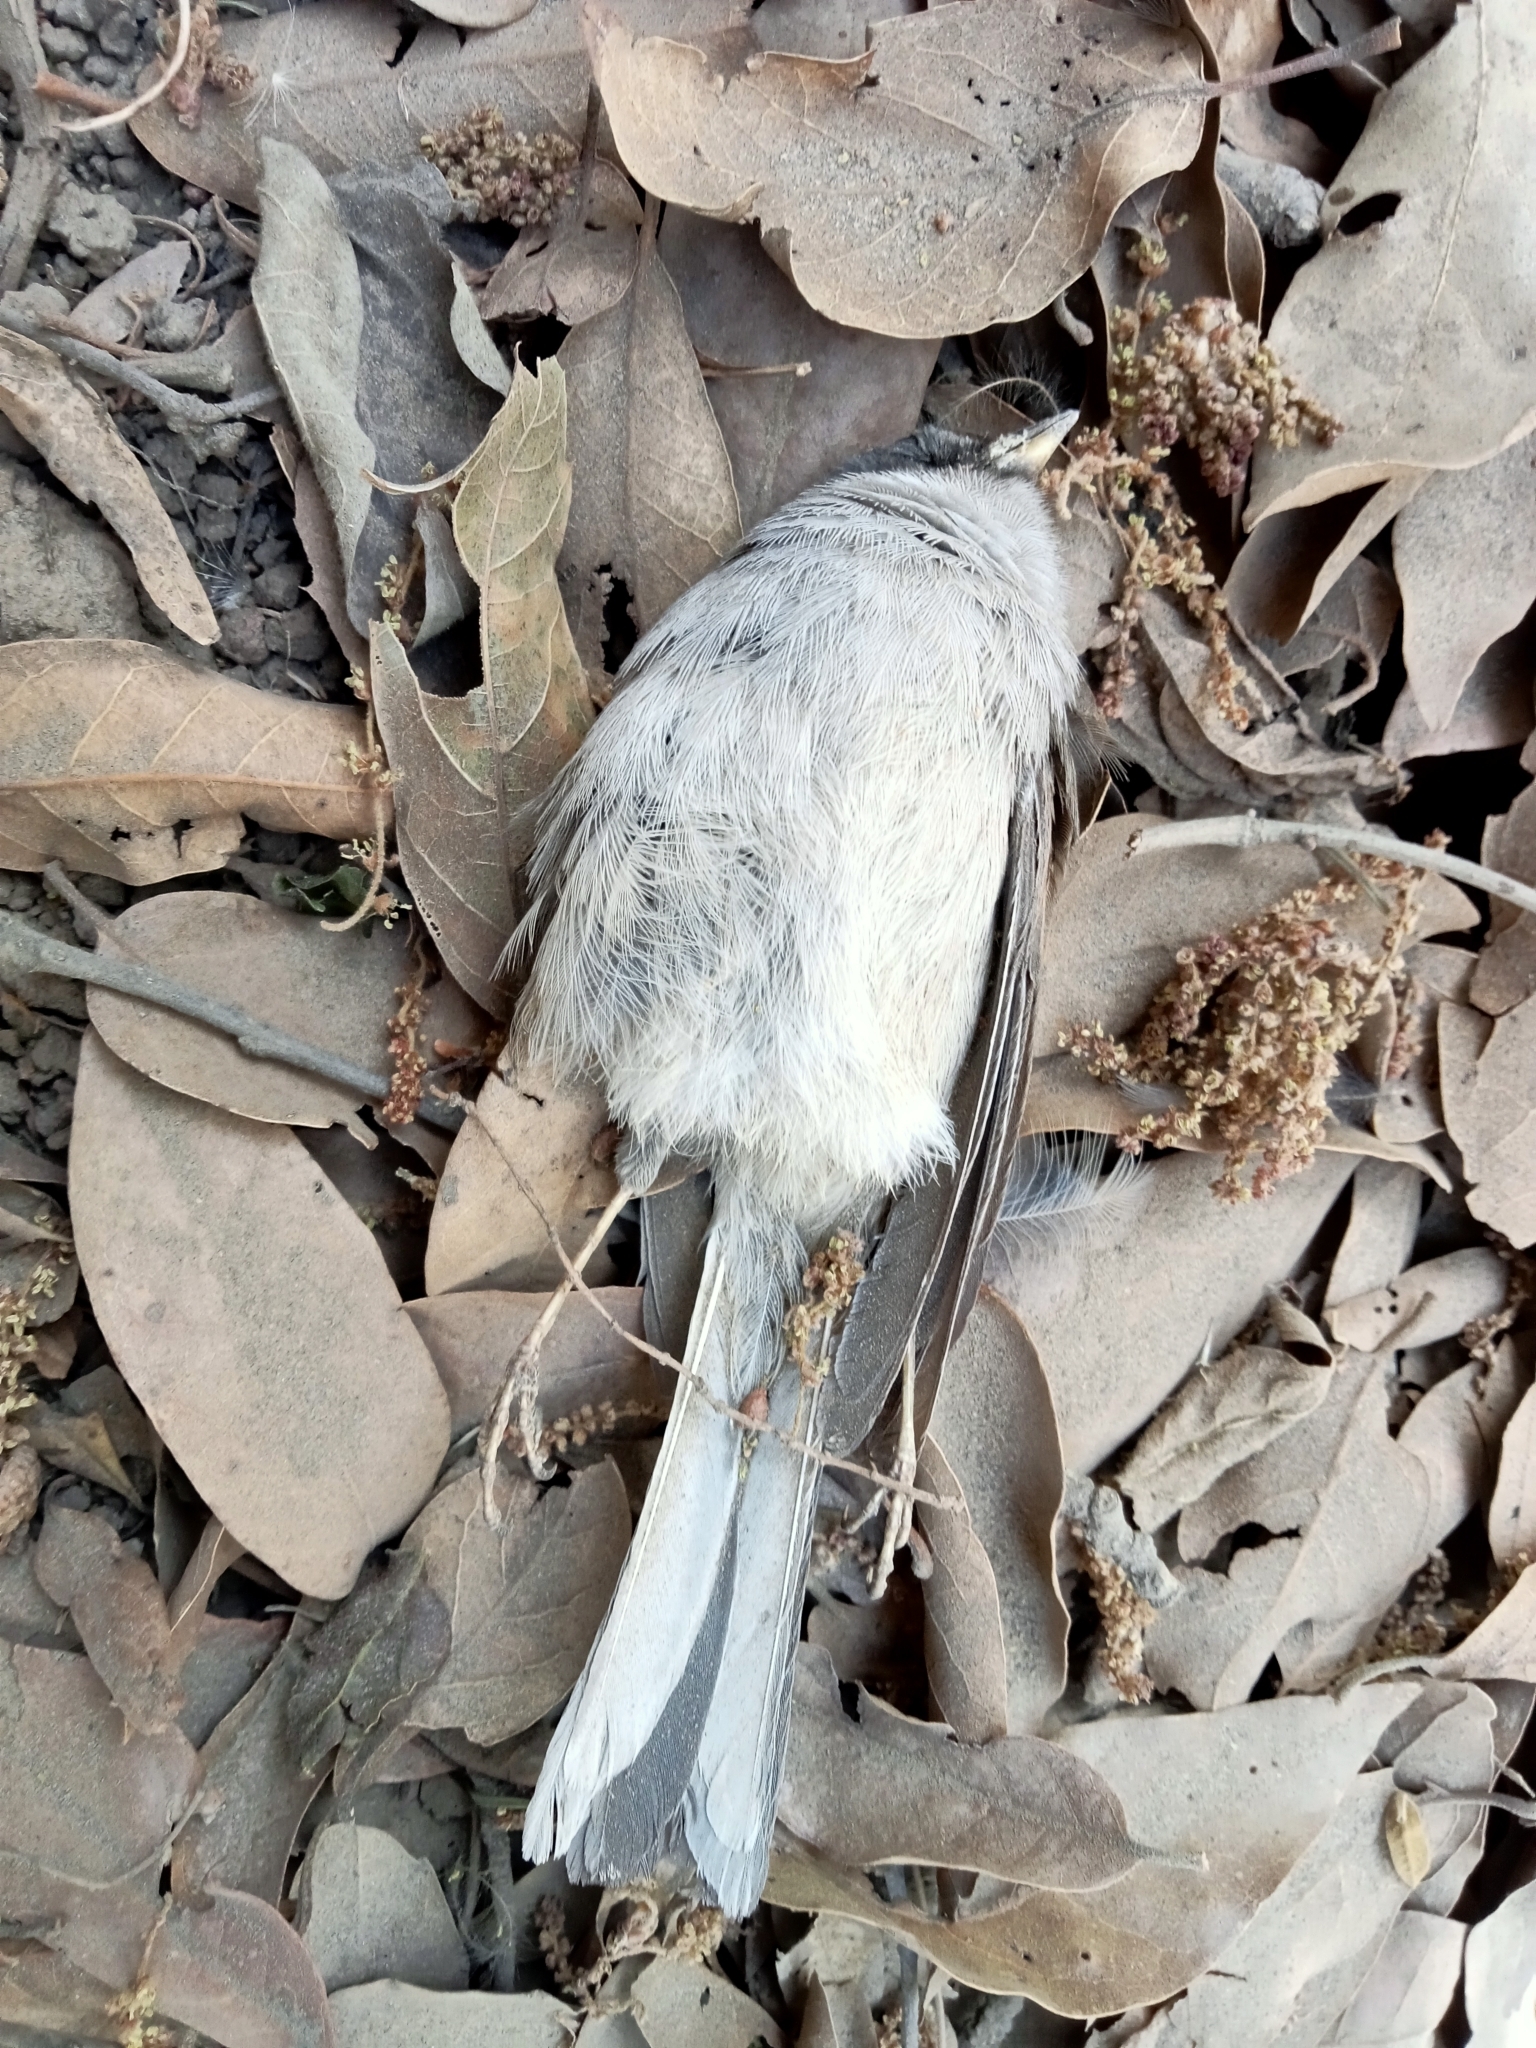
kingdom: Animalia
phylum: Chordata
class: Aves
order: Passeriformes
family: Passerellidae
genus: Junco
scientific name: Junco phaeonotus
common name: Yellow-eyed junco
